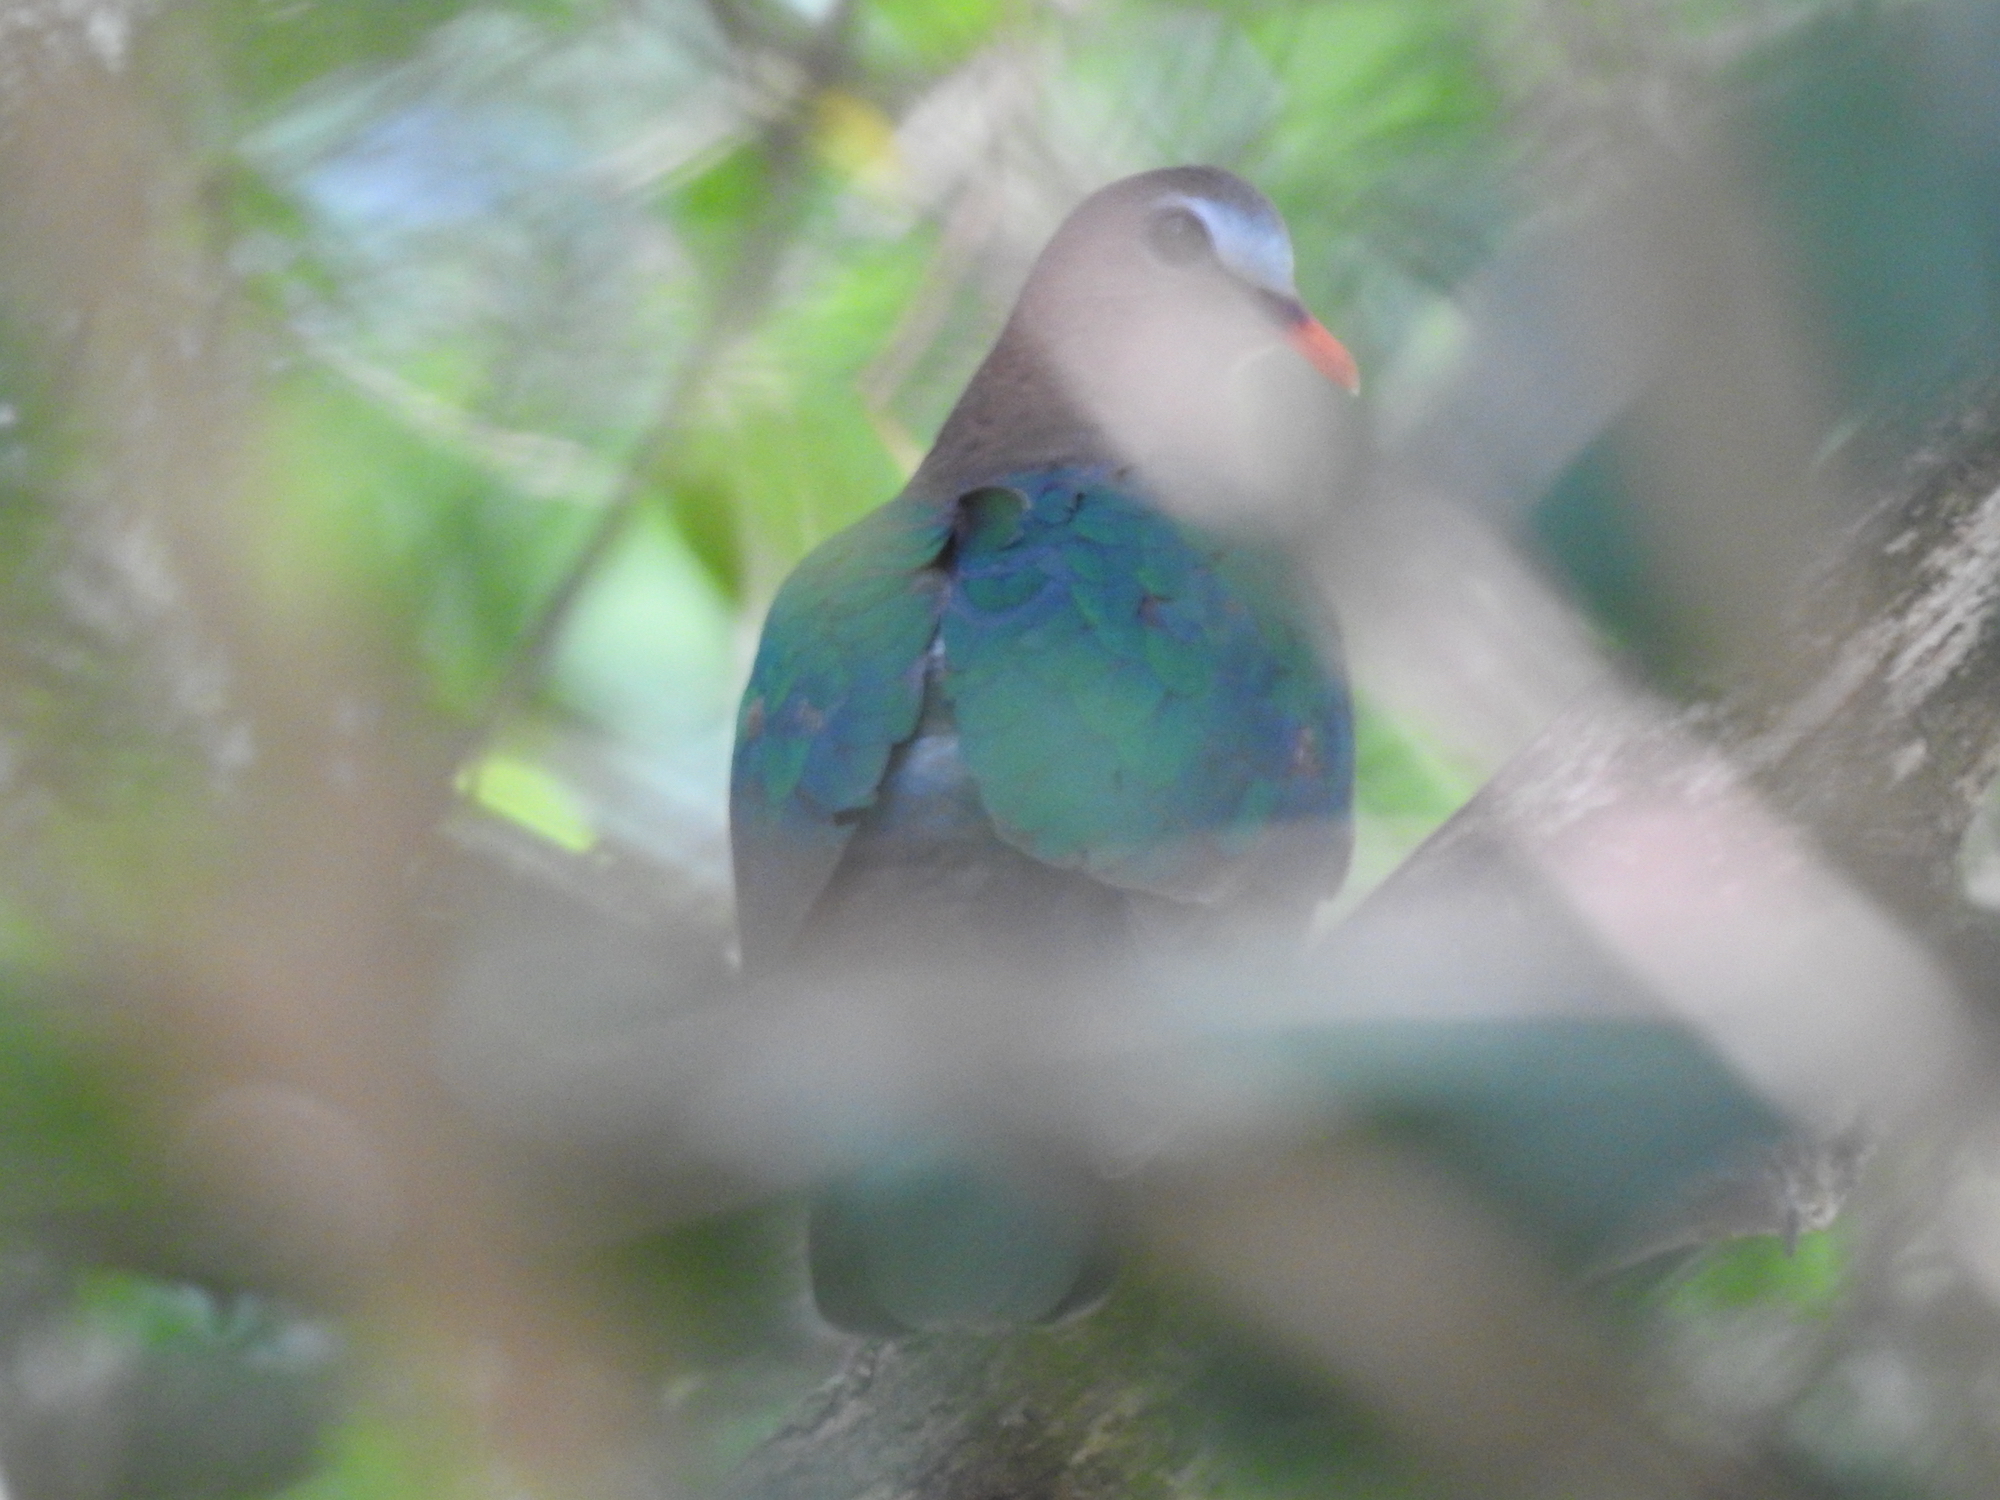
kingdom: Animalia
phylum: Chordata
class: Aves
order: Columbiformes
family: Columbidae
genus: Chalcophaps
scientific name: Chalcophaps indica
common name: Common emerald dove
